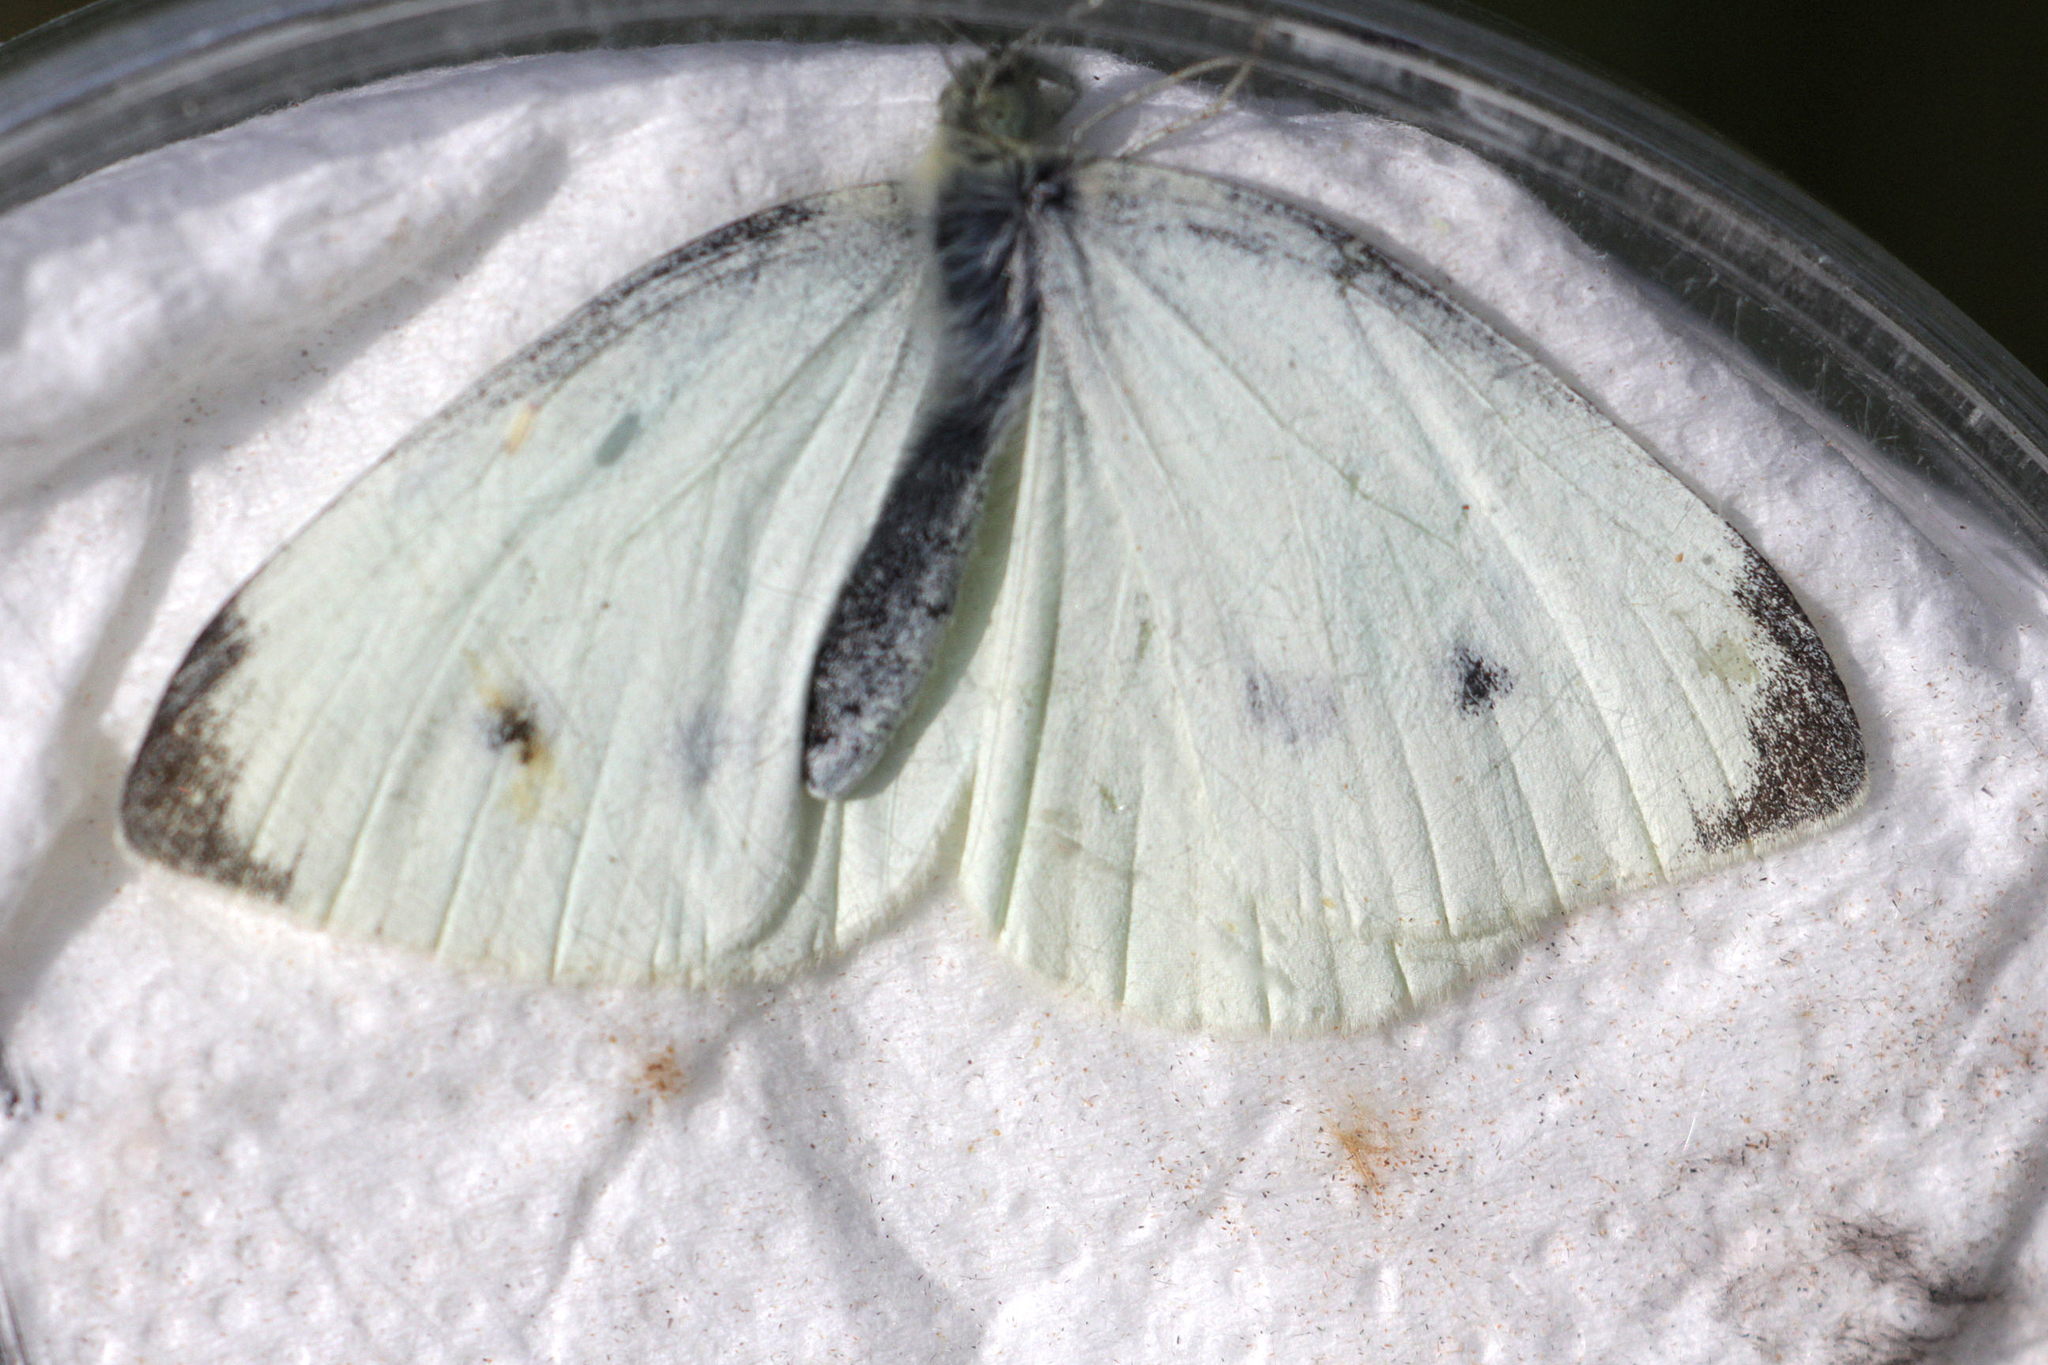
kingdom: Animalia
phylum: Arthropoda
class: Insecta
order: Lepidoptera
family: Pieridae
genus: Pieris
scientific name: Pieris rapae
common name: Small white
